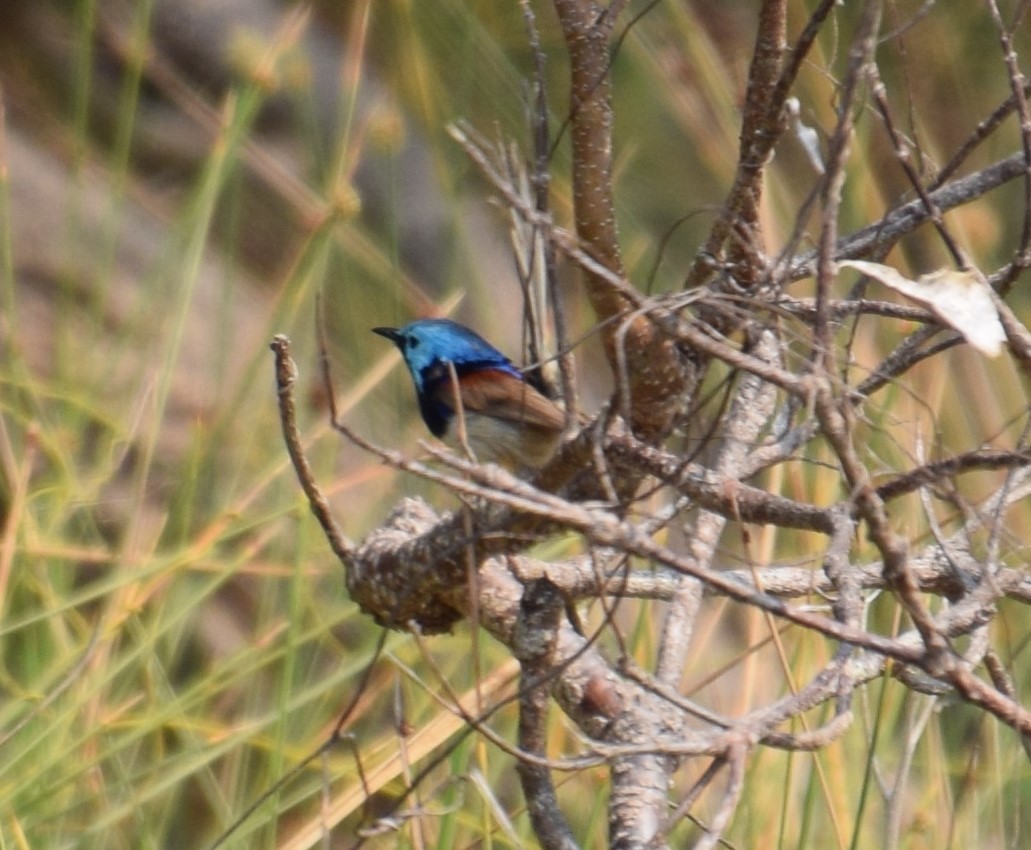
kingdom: Animalia
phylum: Chordata
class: Aves
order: Passeriformes
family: Maluridae
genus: Malurus
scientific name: Malurus lamberti
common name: Variegated fairywren
